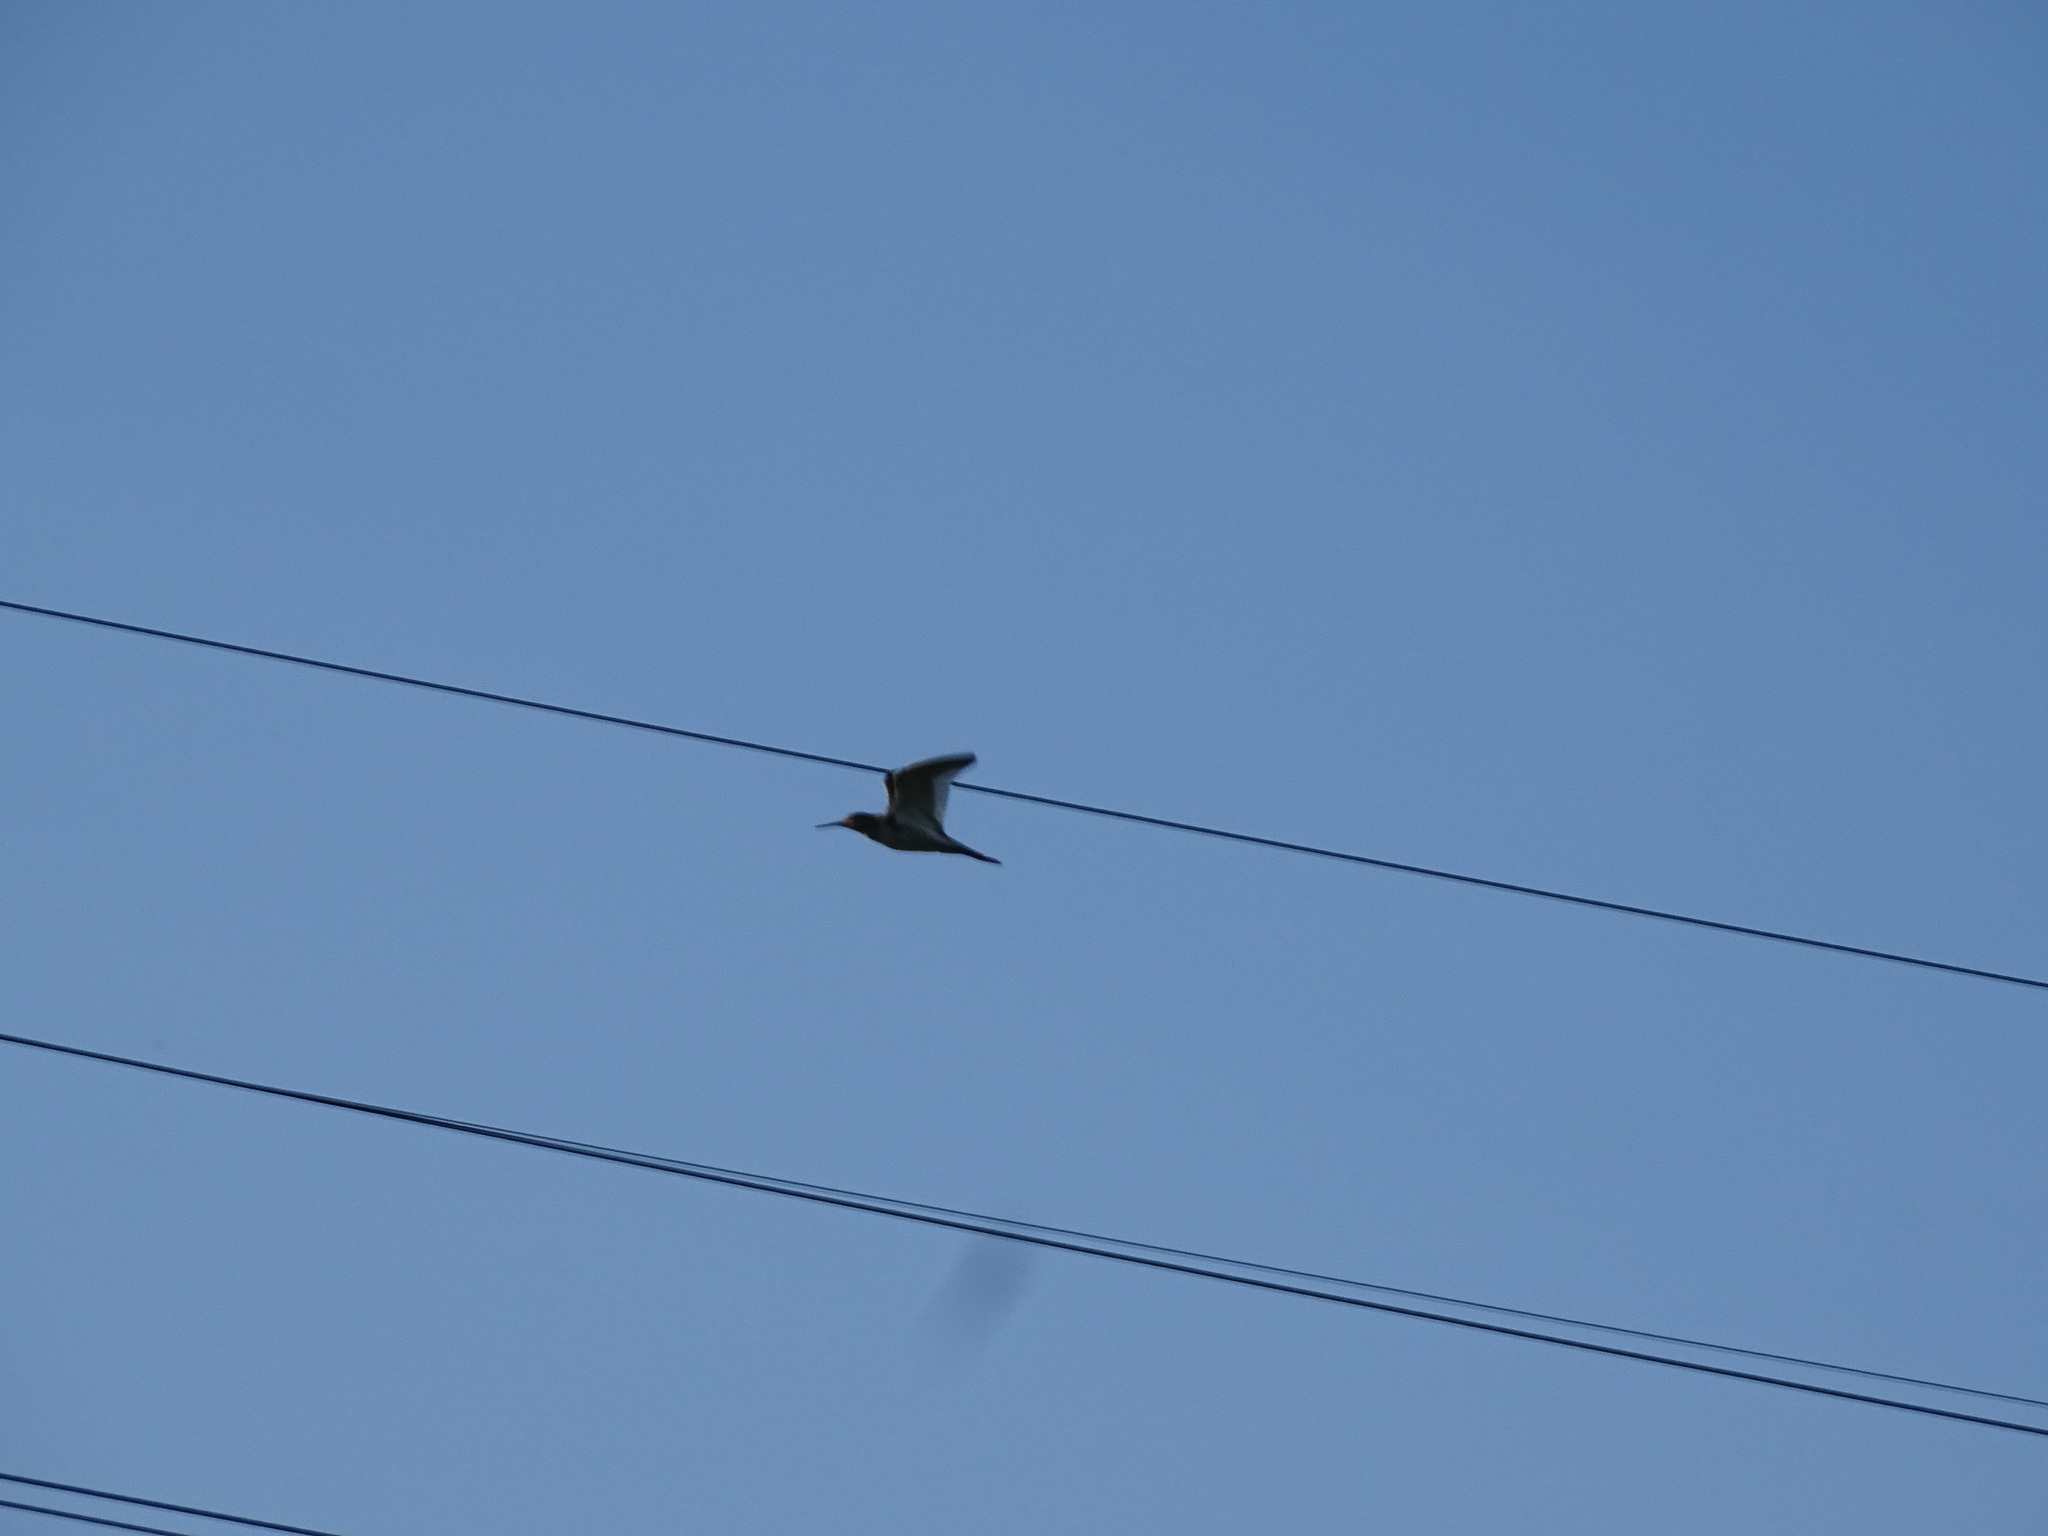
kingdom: Animalia
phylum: Chordata
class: Aves
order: Charadriiformes
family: Scolopacidae
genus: Tringa
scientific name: Tringa totanus
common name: Common redshank
